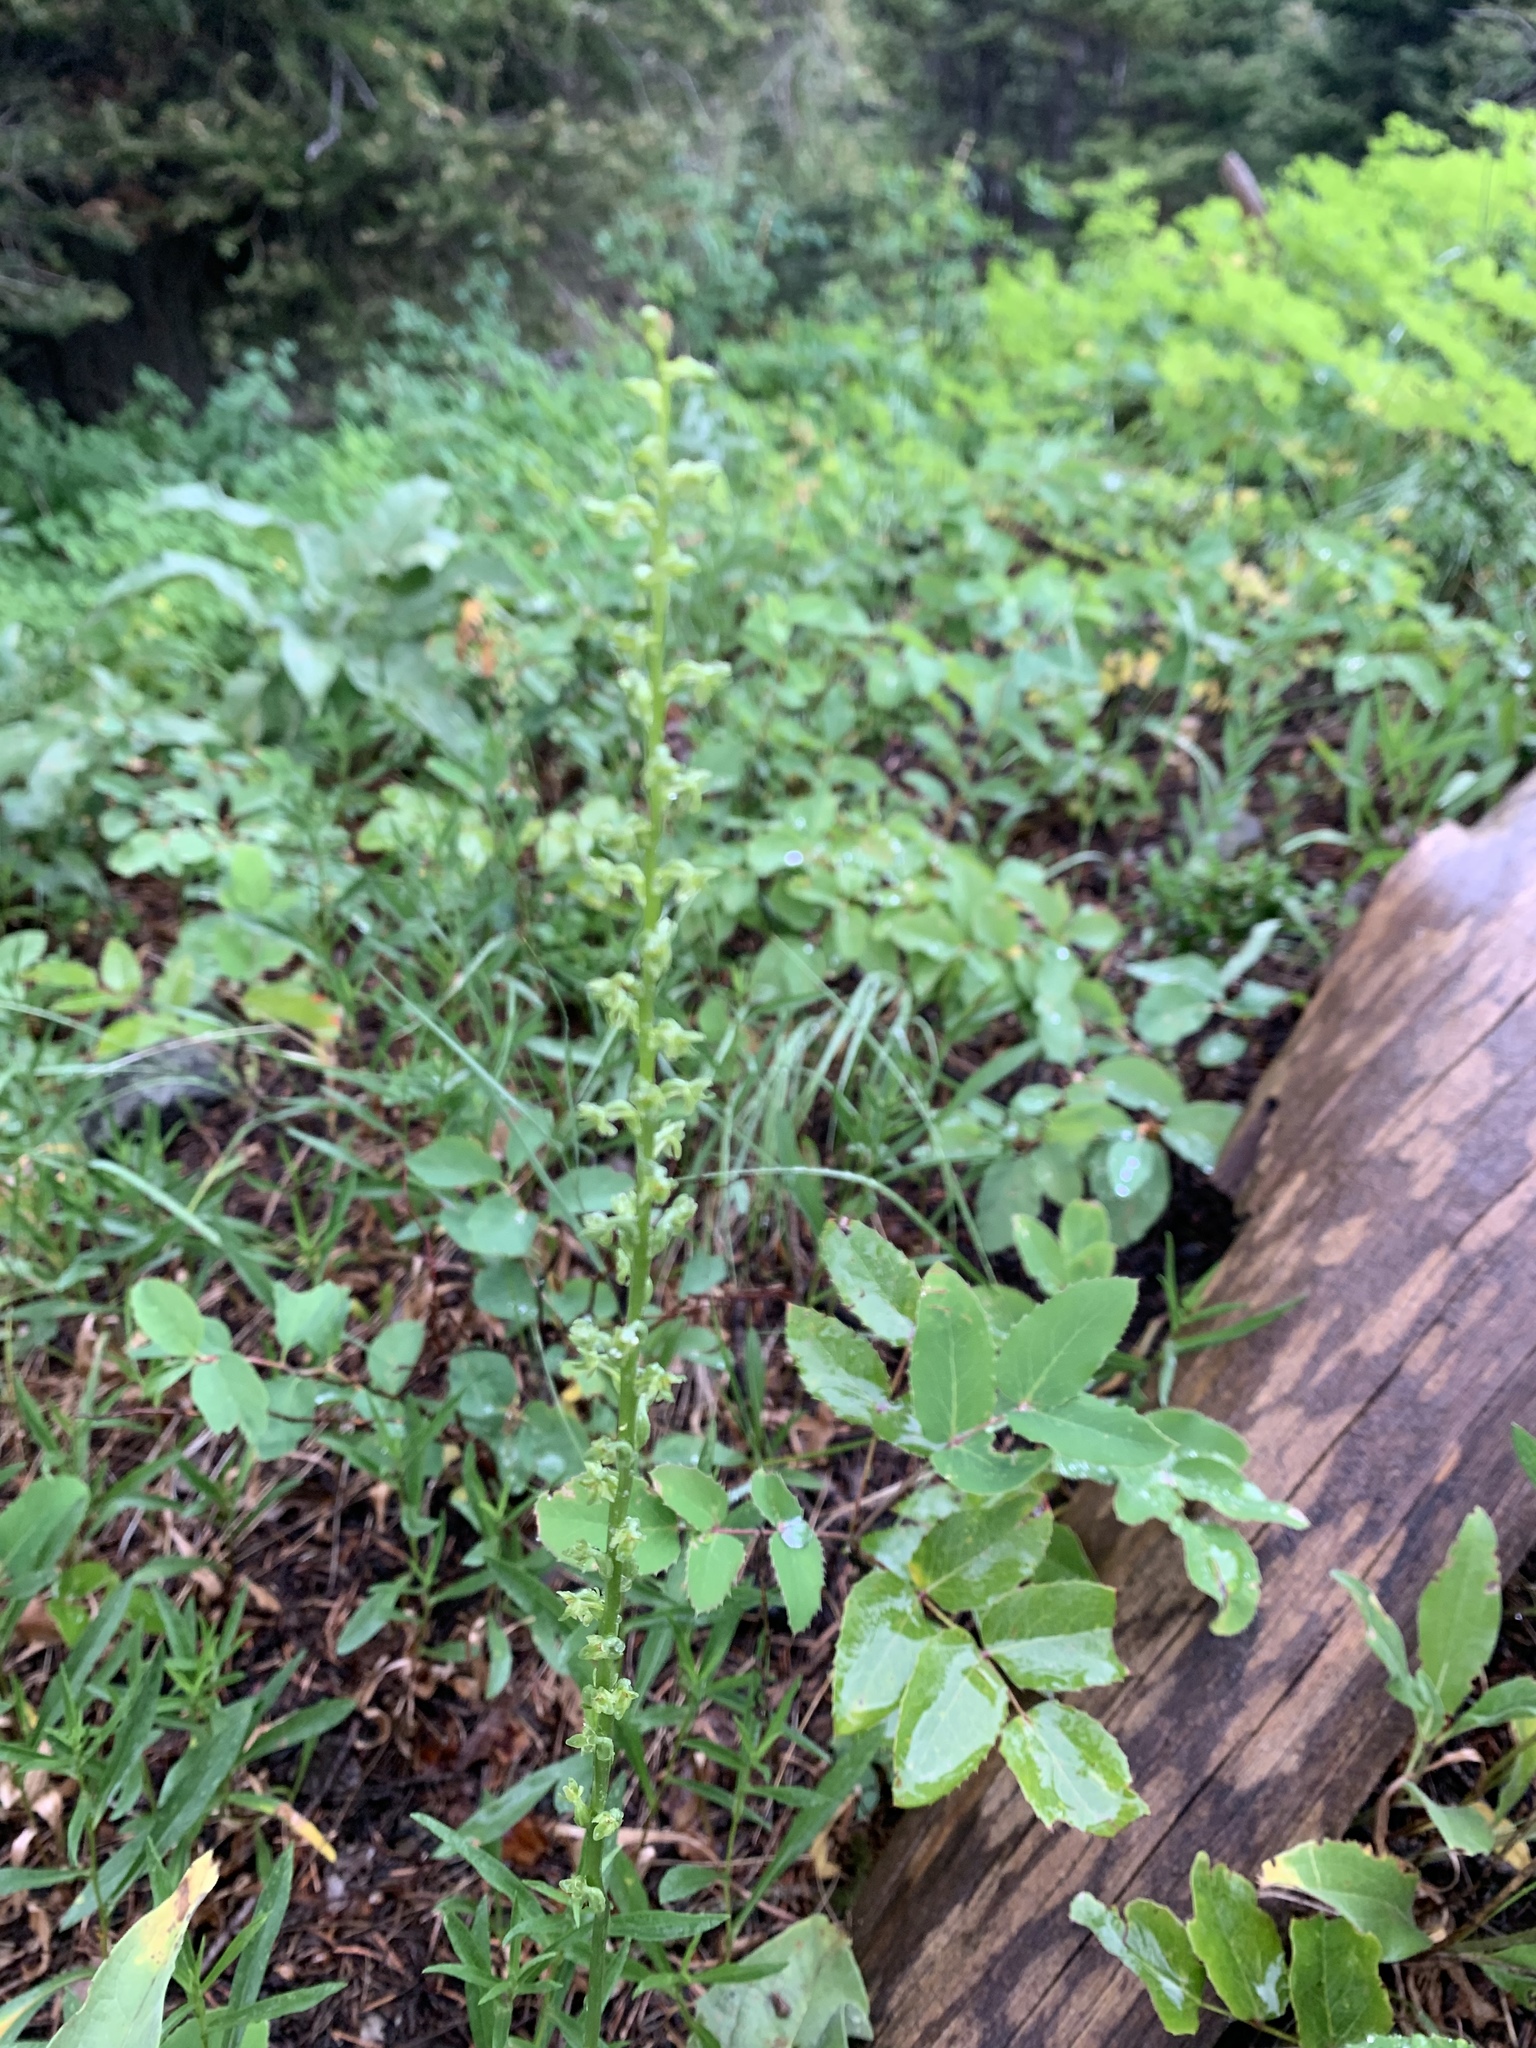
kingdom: Plantae
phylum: Tracheophyta
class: Liliopsida
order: Asparagales
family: Orchidaceae
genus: Platanthera
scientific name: Platanthera unalascensis
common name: Alaska bog orchid
